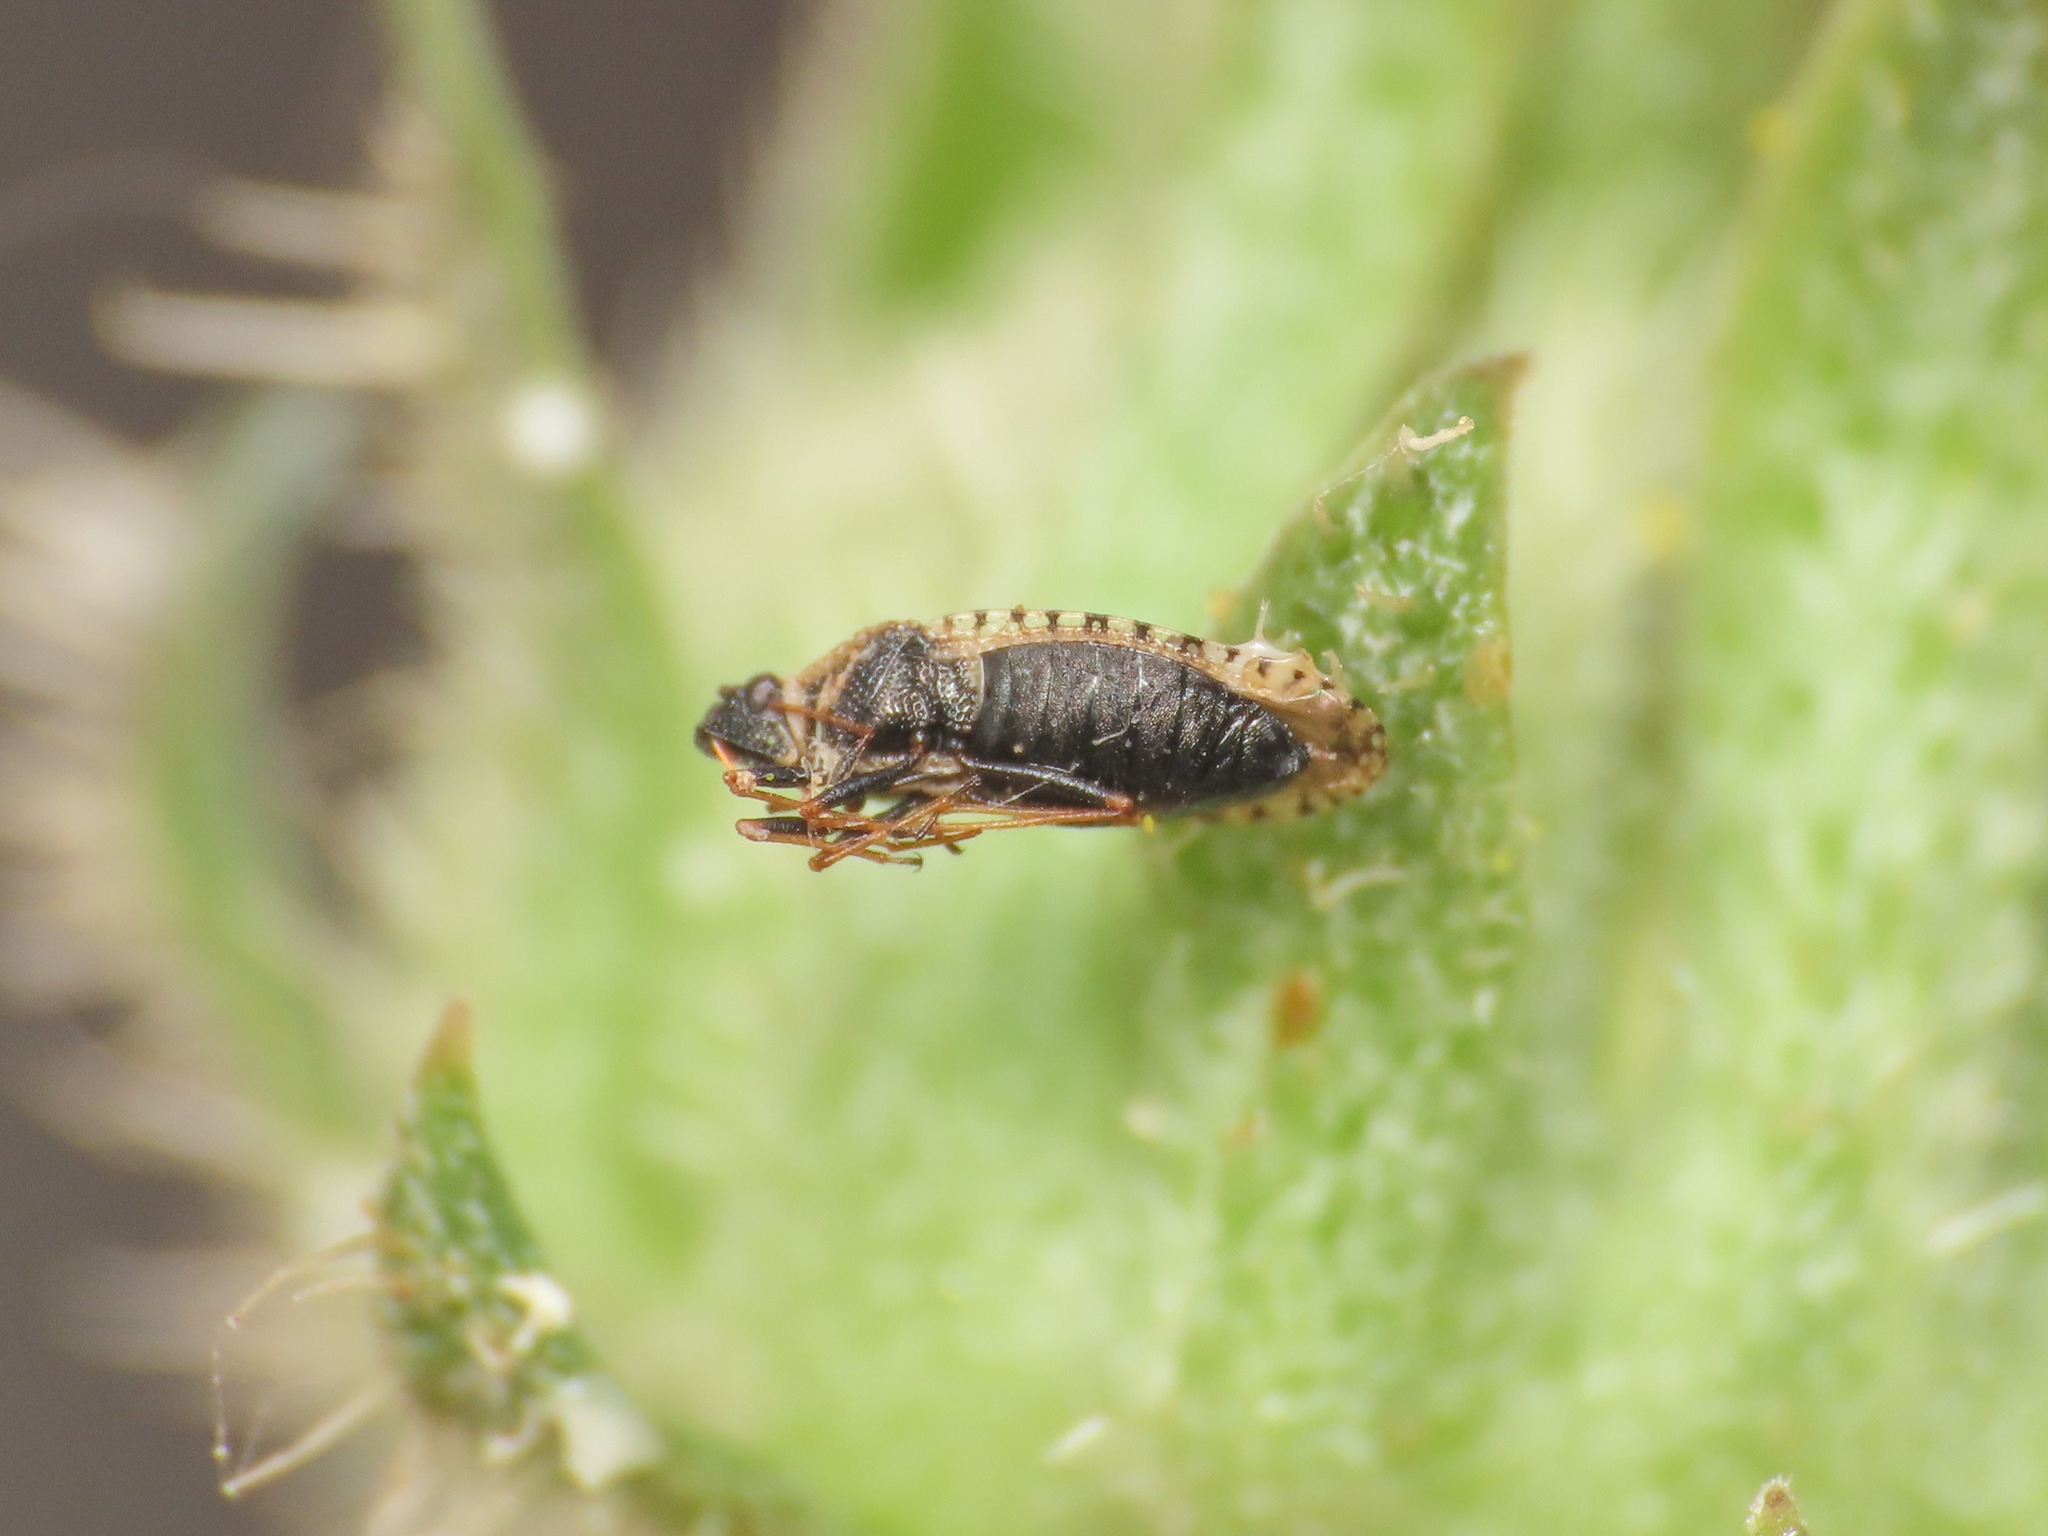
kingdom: Animalia
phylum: Arthropoda
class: Insecta
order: Hemiptera
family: Tingidae
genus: Dictyla
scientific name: Dictyla echii
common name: Lace bug
